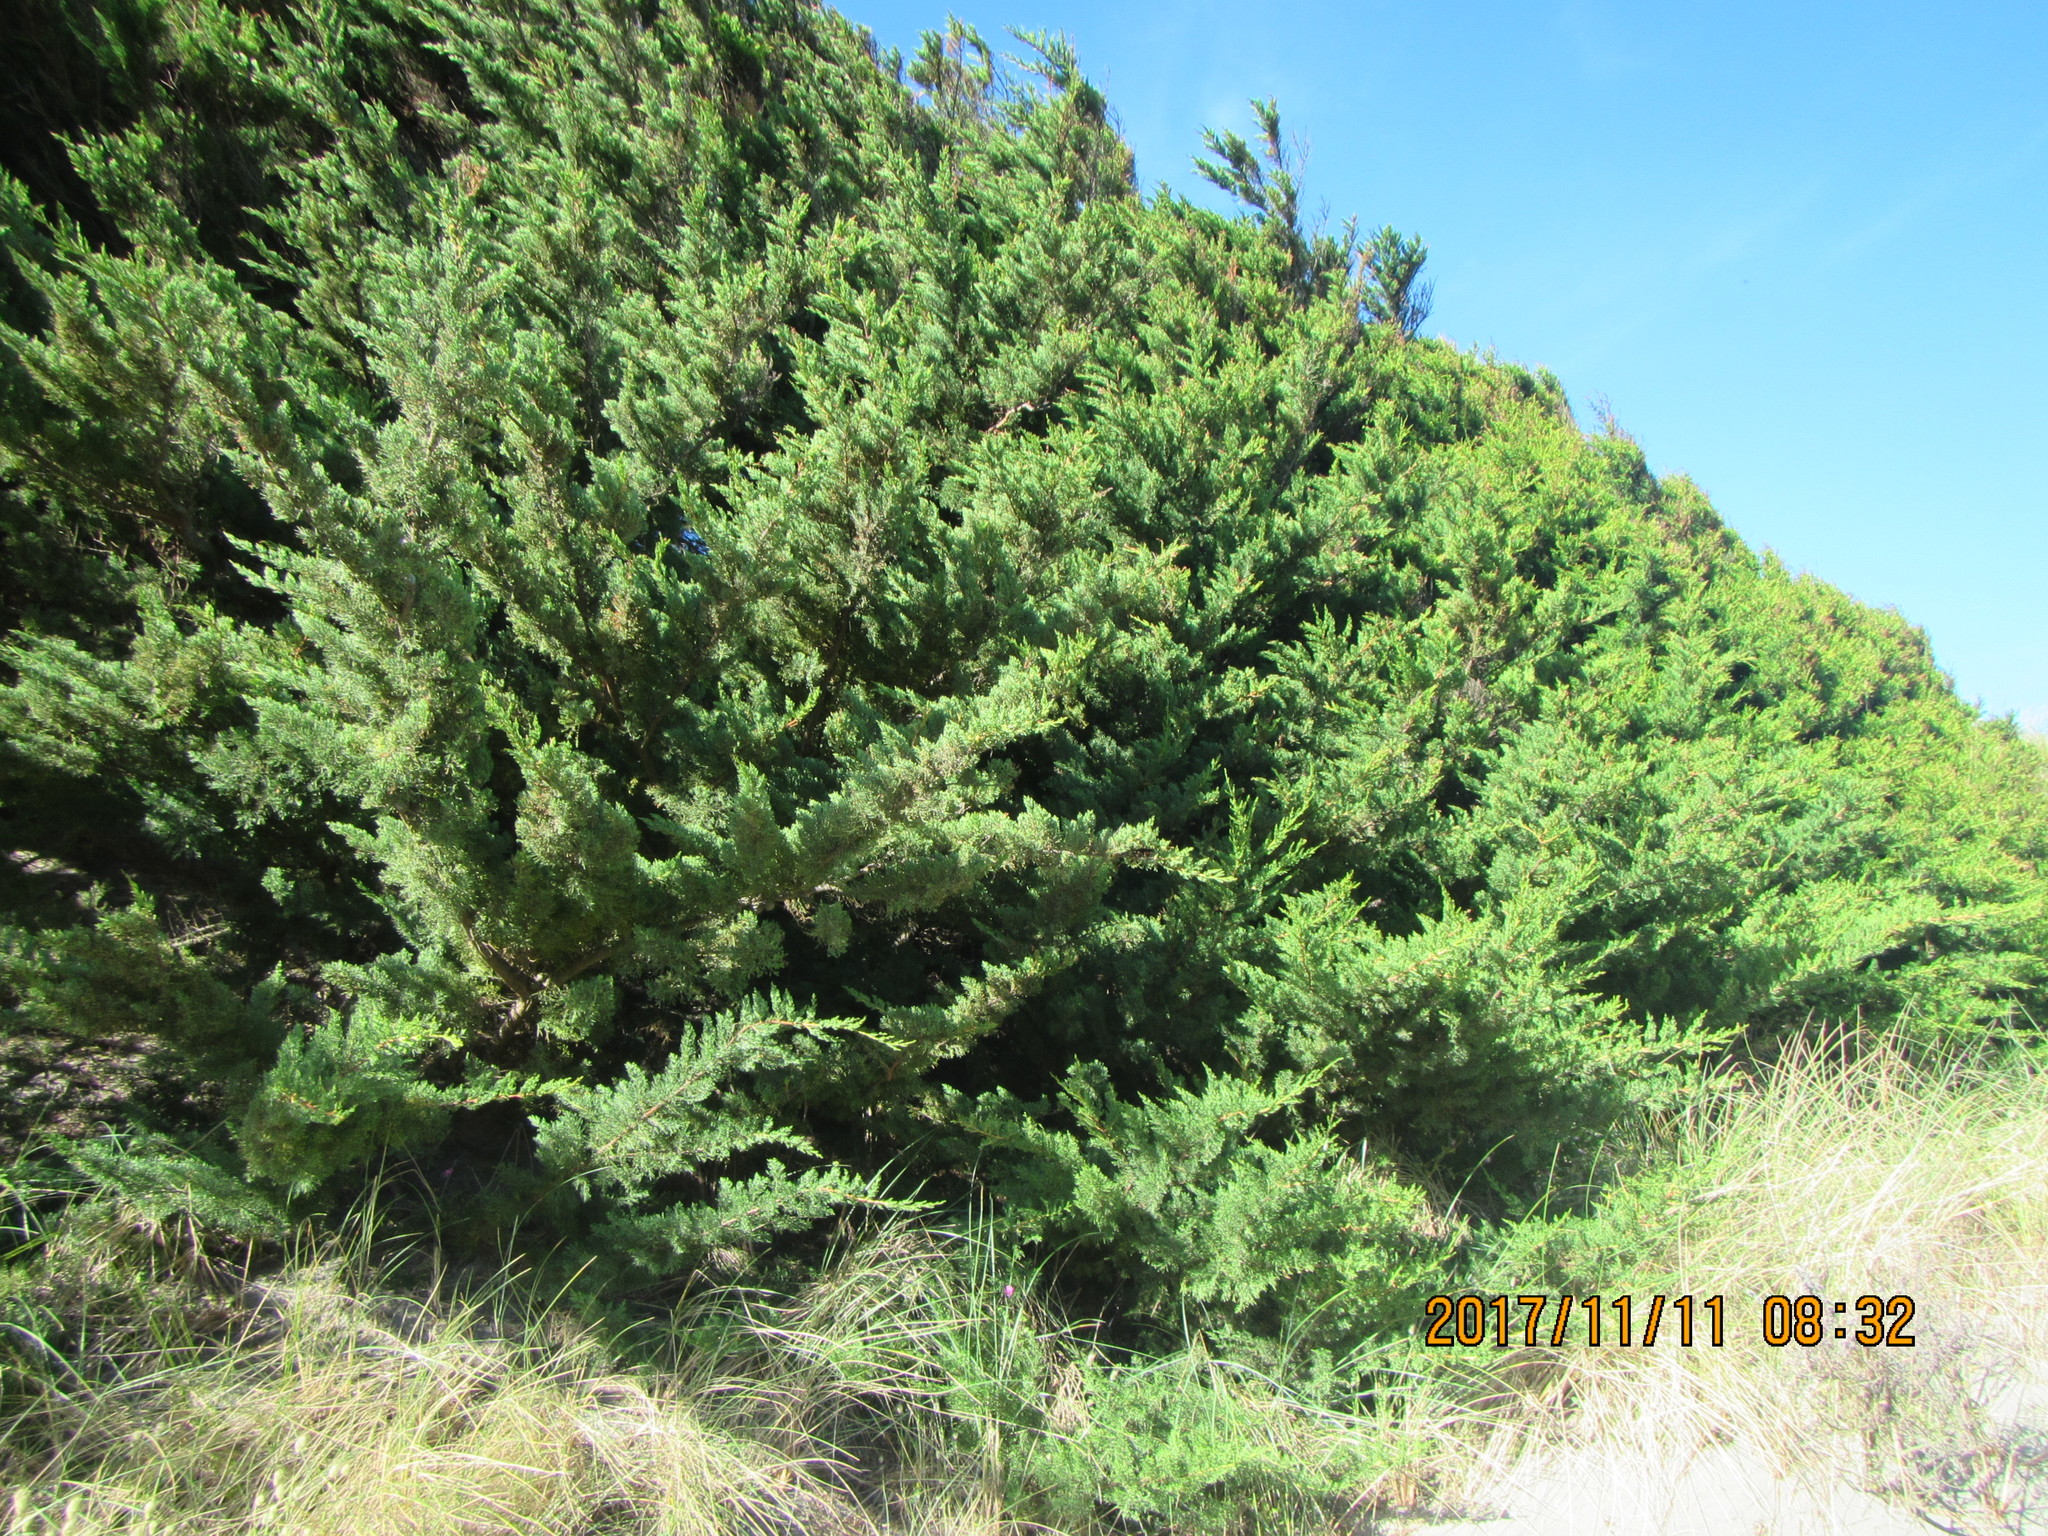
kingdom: Plantae
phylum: Tracheophyta
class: Pinopsida
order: Pinales
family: Cupressaceae
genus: Cupressus
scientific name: Cupressus macrocarpa
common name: Monterey cypress
